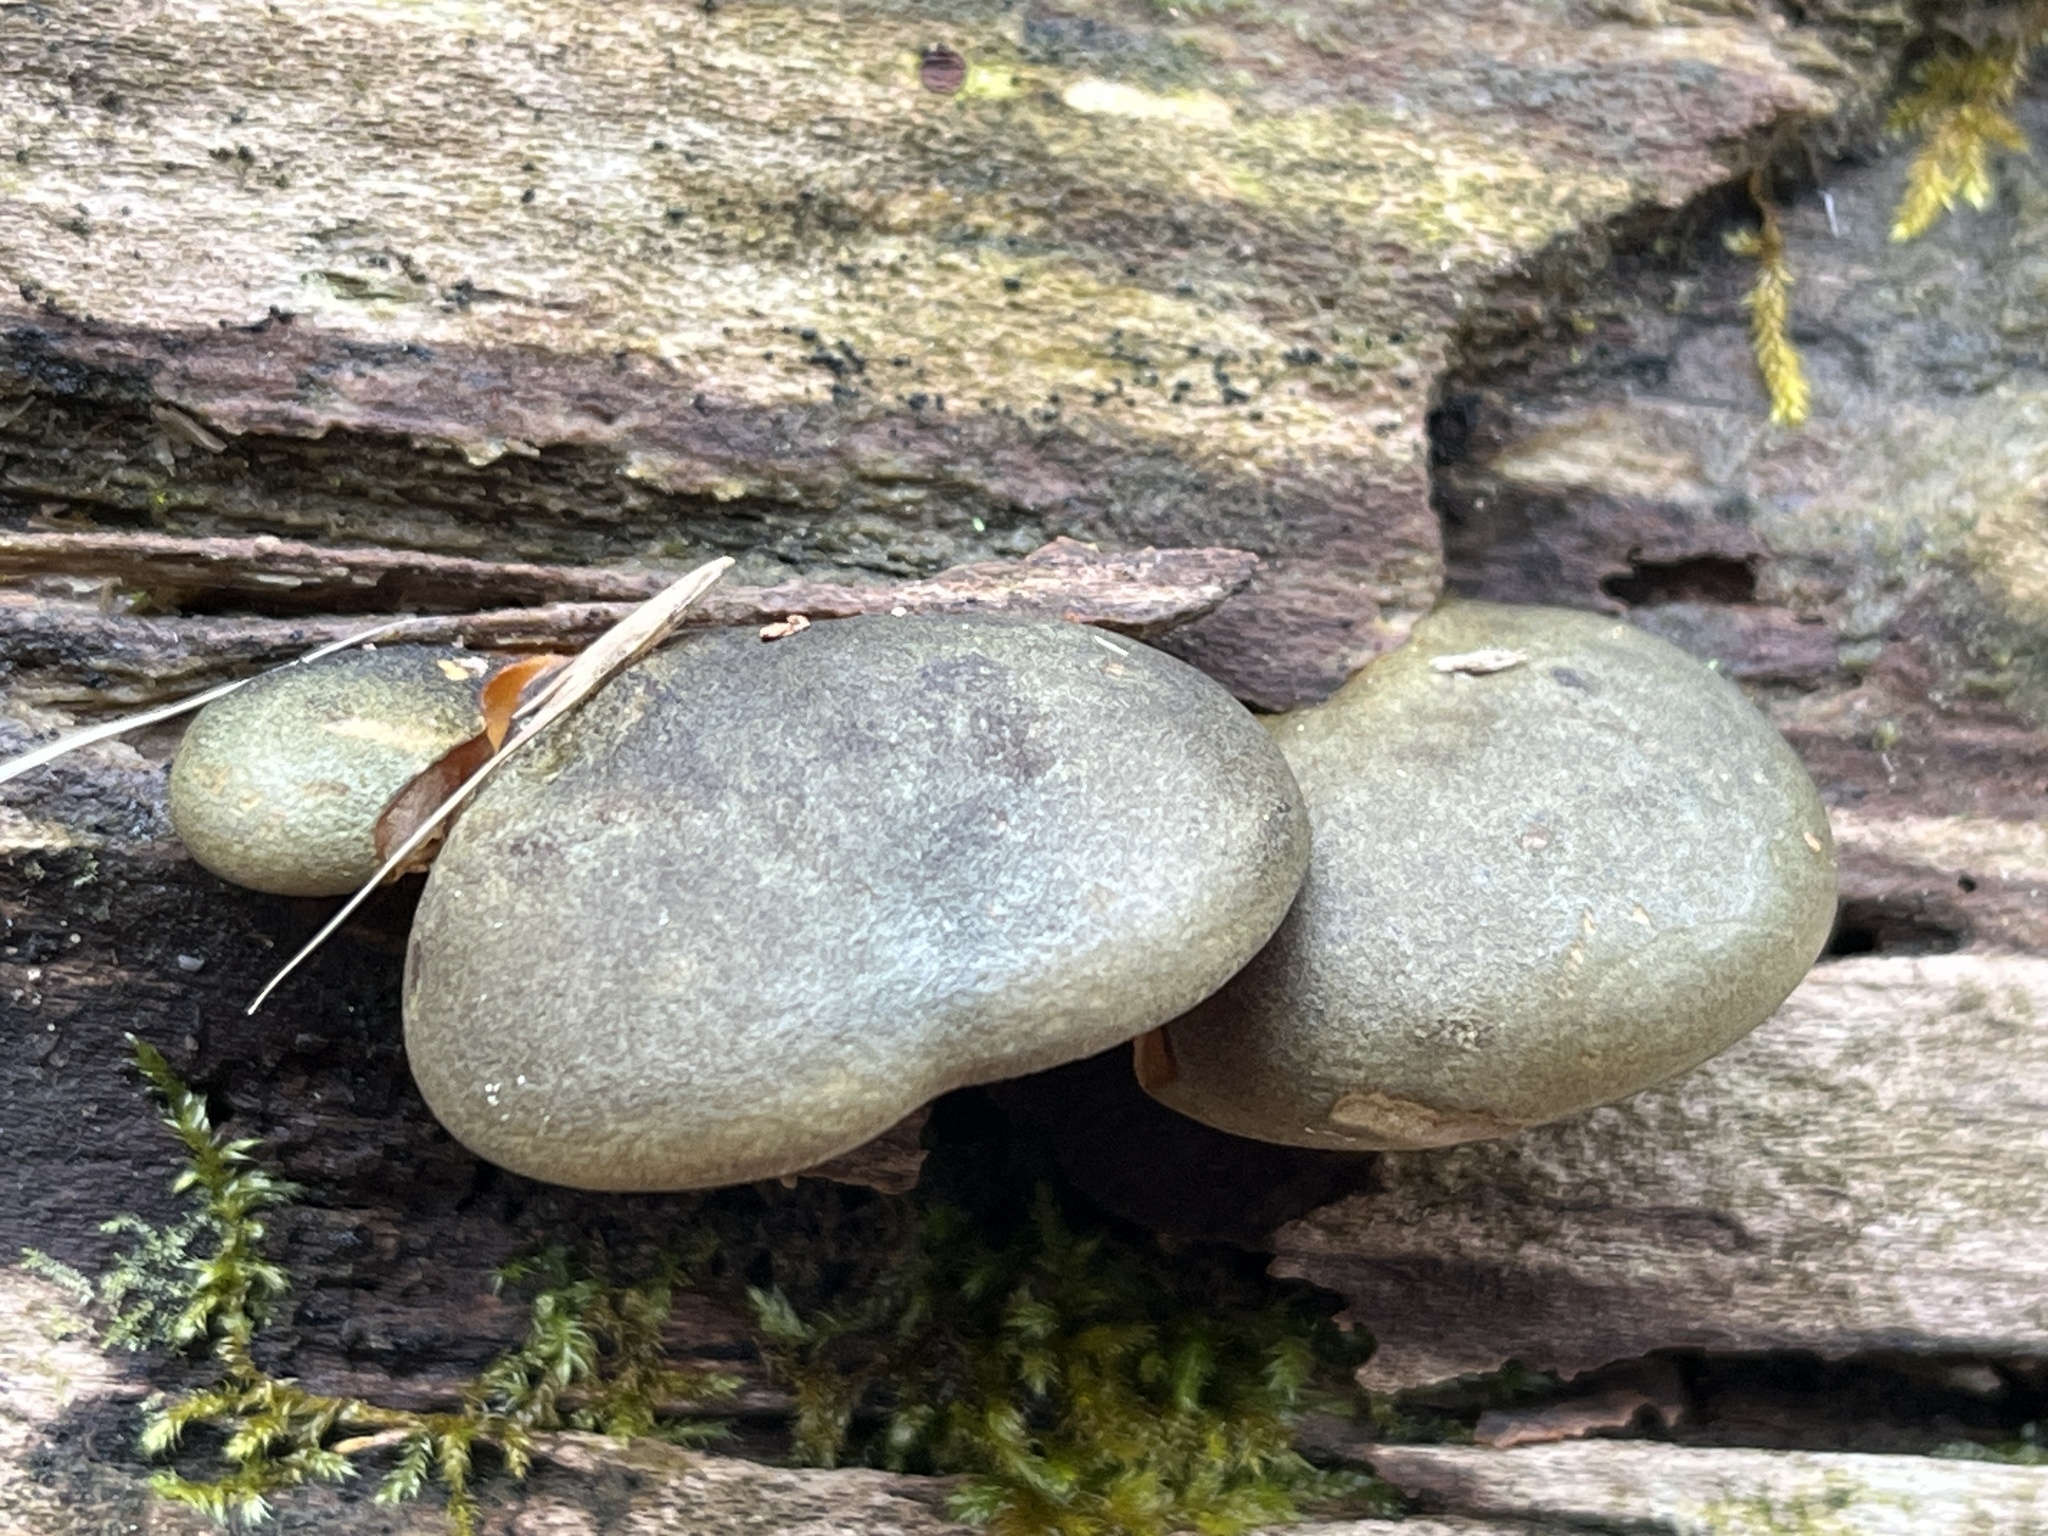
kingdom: Fungi
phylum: Basidiomycota
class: Agaricomycetes
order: Agaricales
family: Sarcomyxaceae
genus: Sarcomyxa
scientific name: Sarcomyxa serotina
